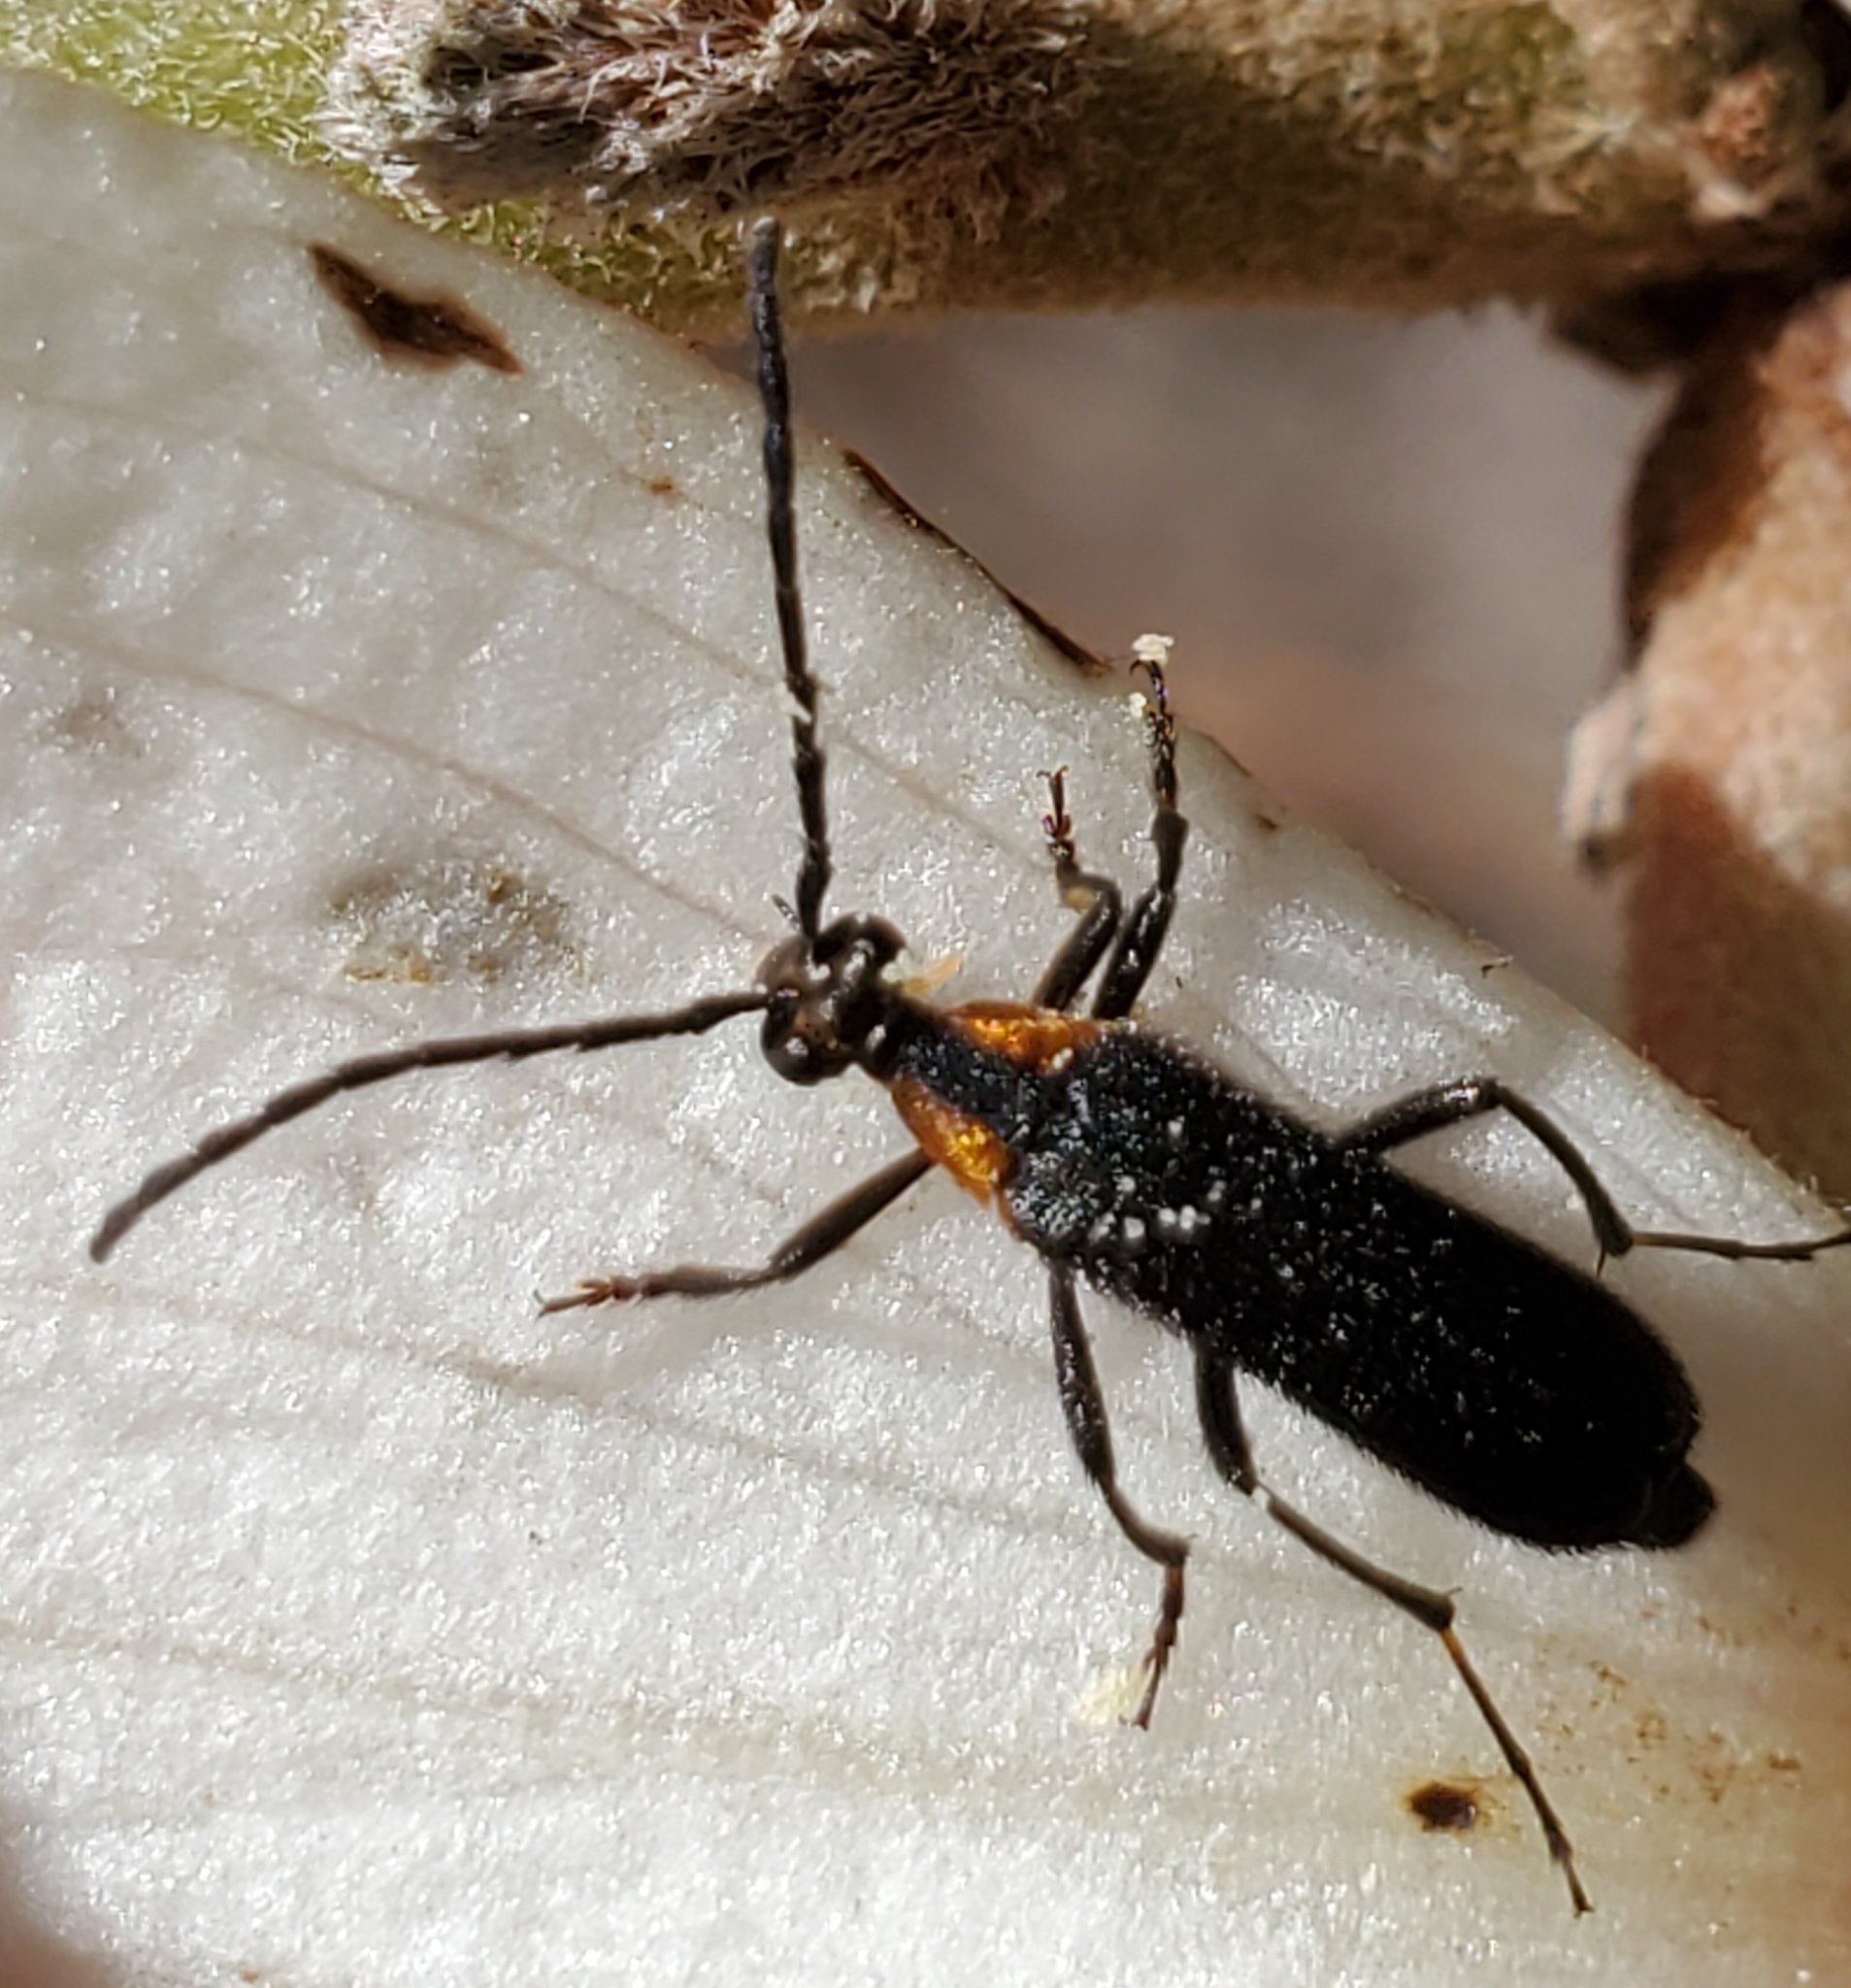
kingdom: Animalia
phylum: Arthropoda
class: Insecta
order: Coleoptera
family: Cerambycidae
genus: Lycochoriolaus
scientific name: Lycochoriolaus lateralis
